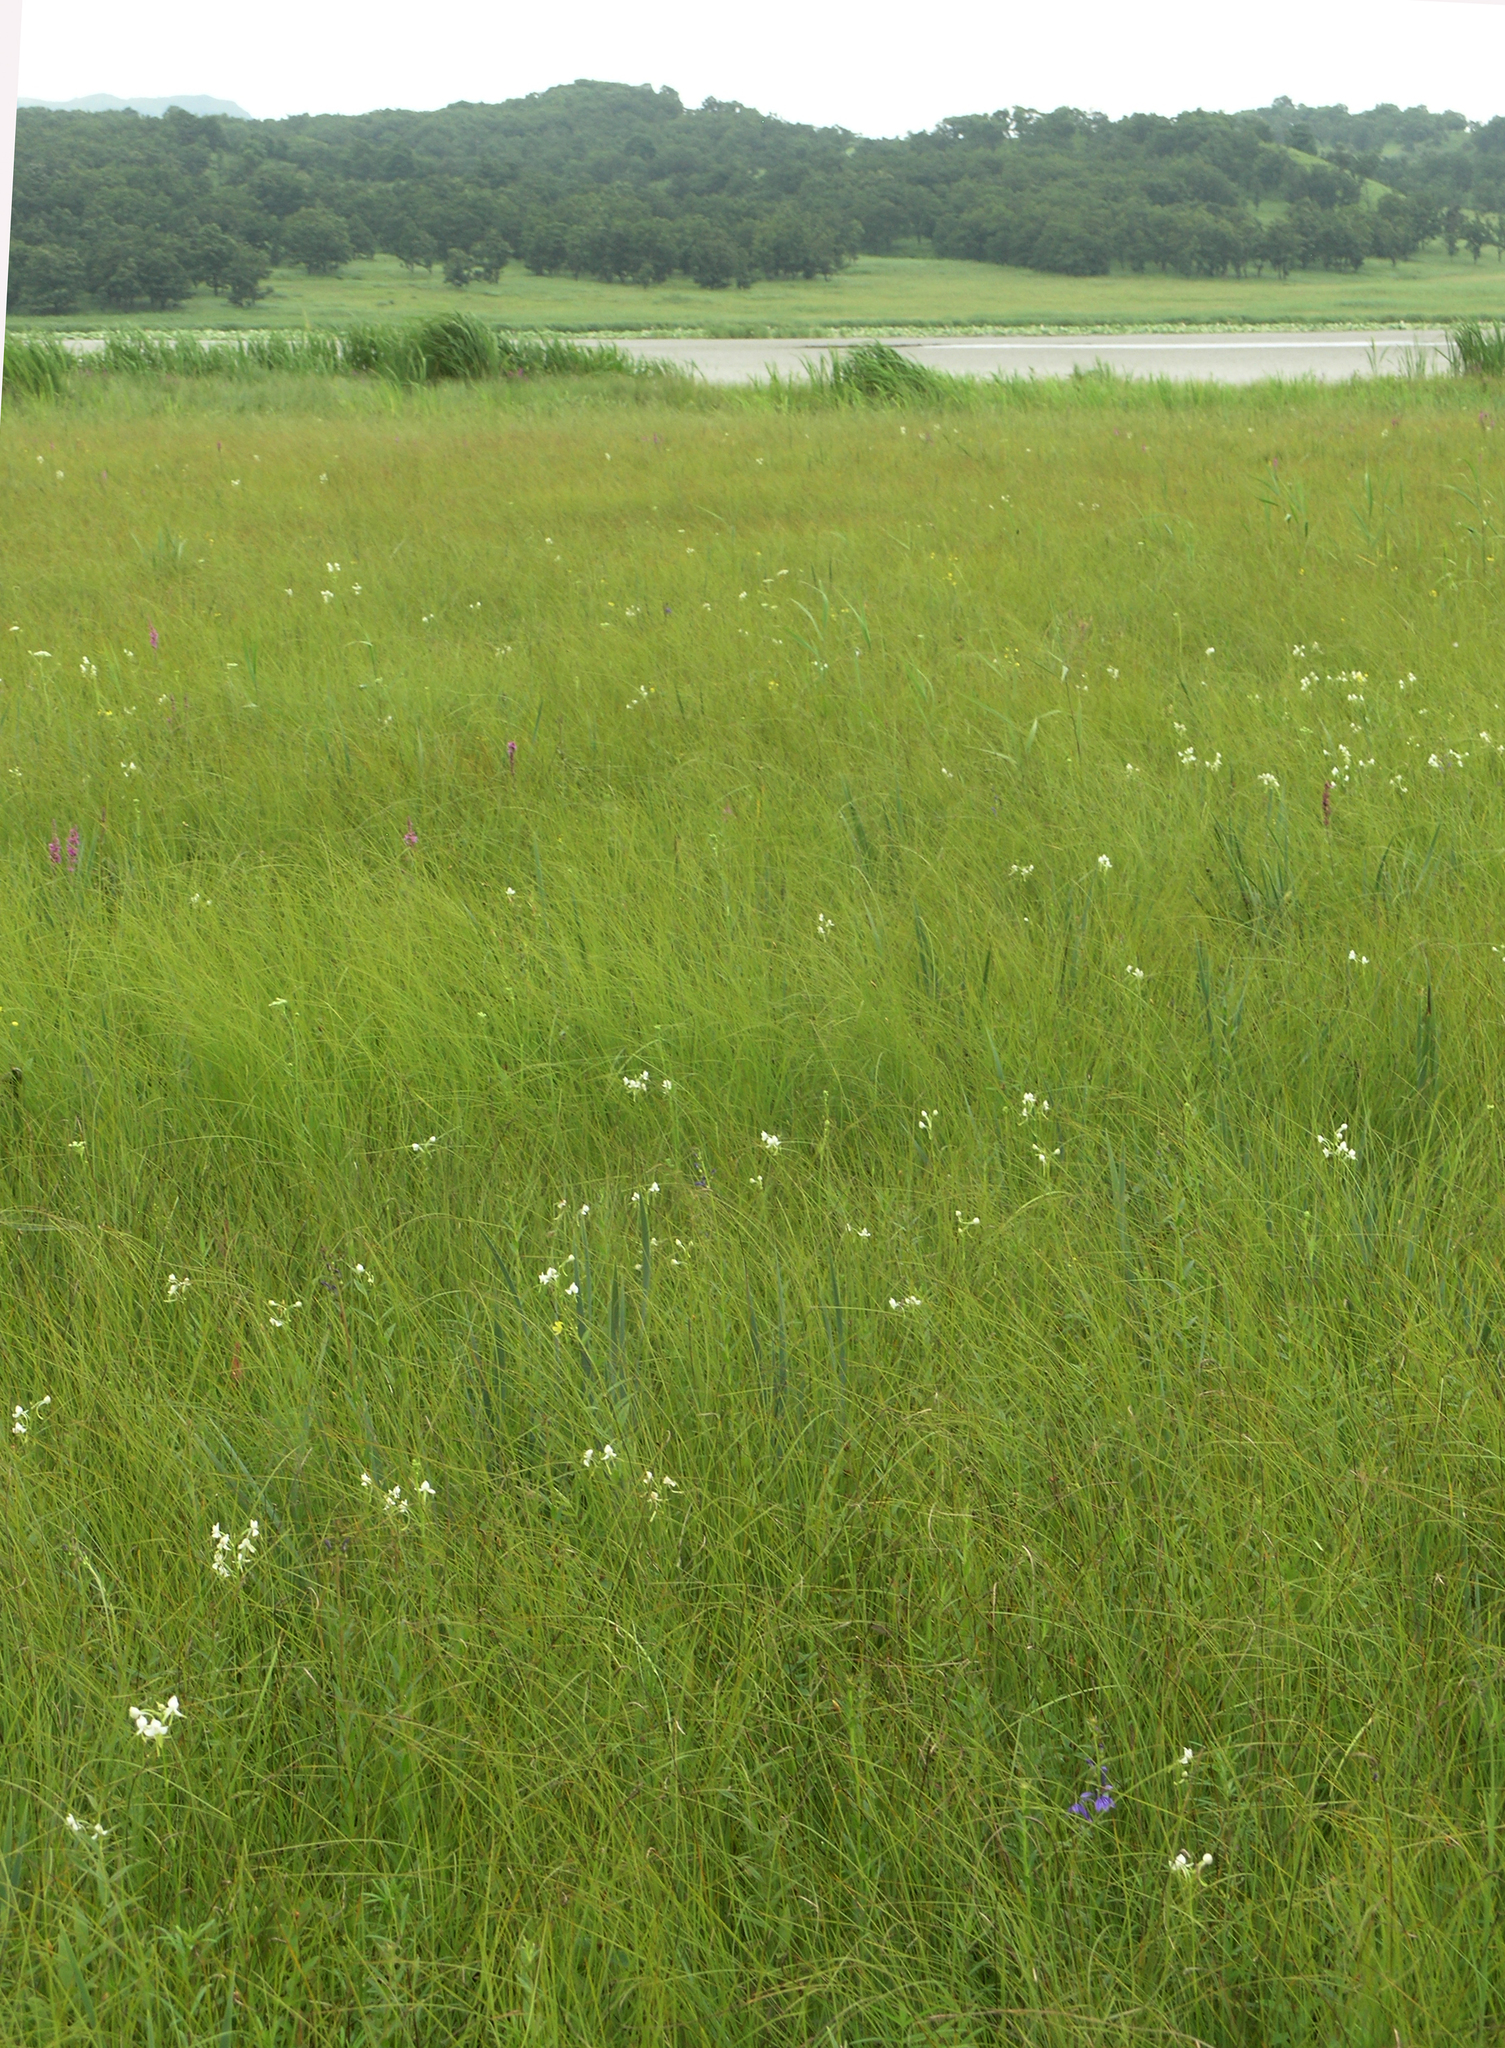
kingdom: Plantae
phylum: Tracheophyta
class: Liliopsida
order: Asparagales
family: Orchidaceae
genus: Habenaria
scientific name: Habenaria linearifolia
